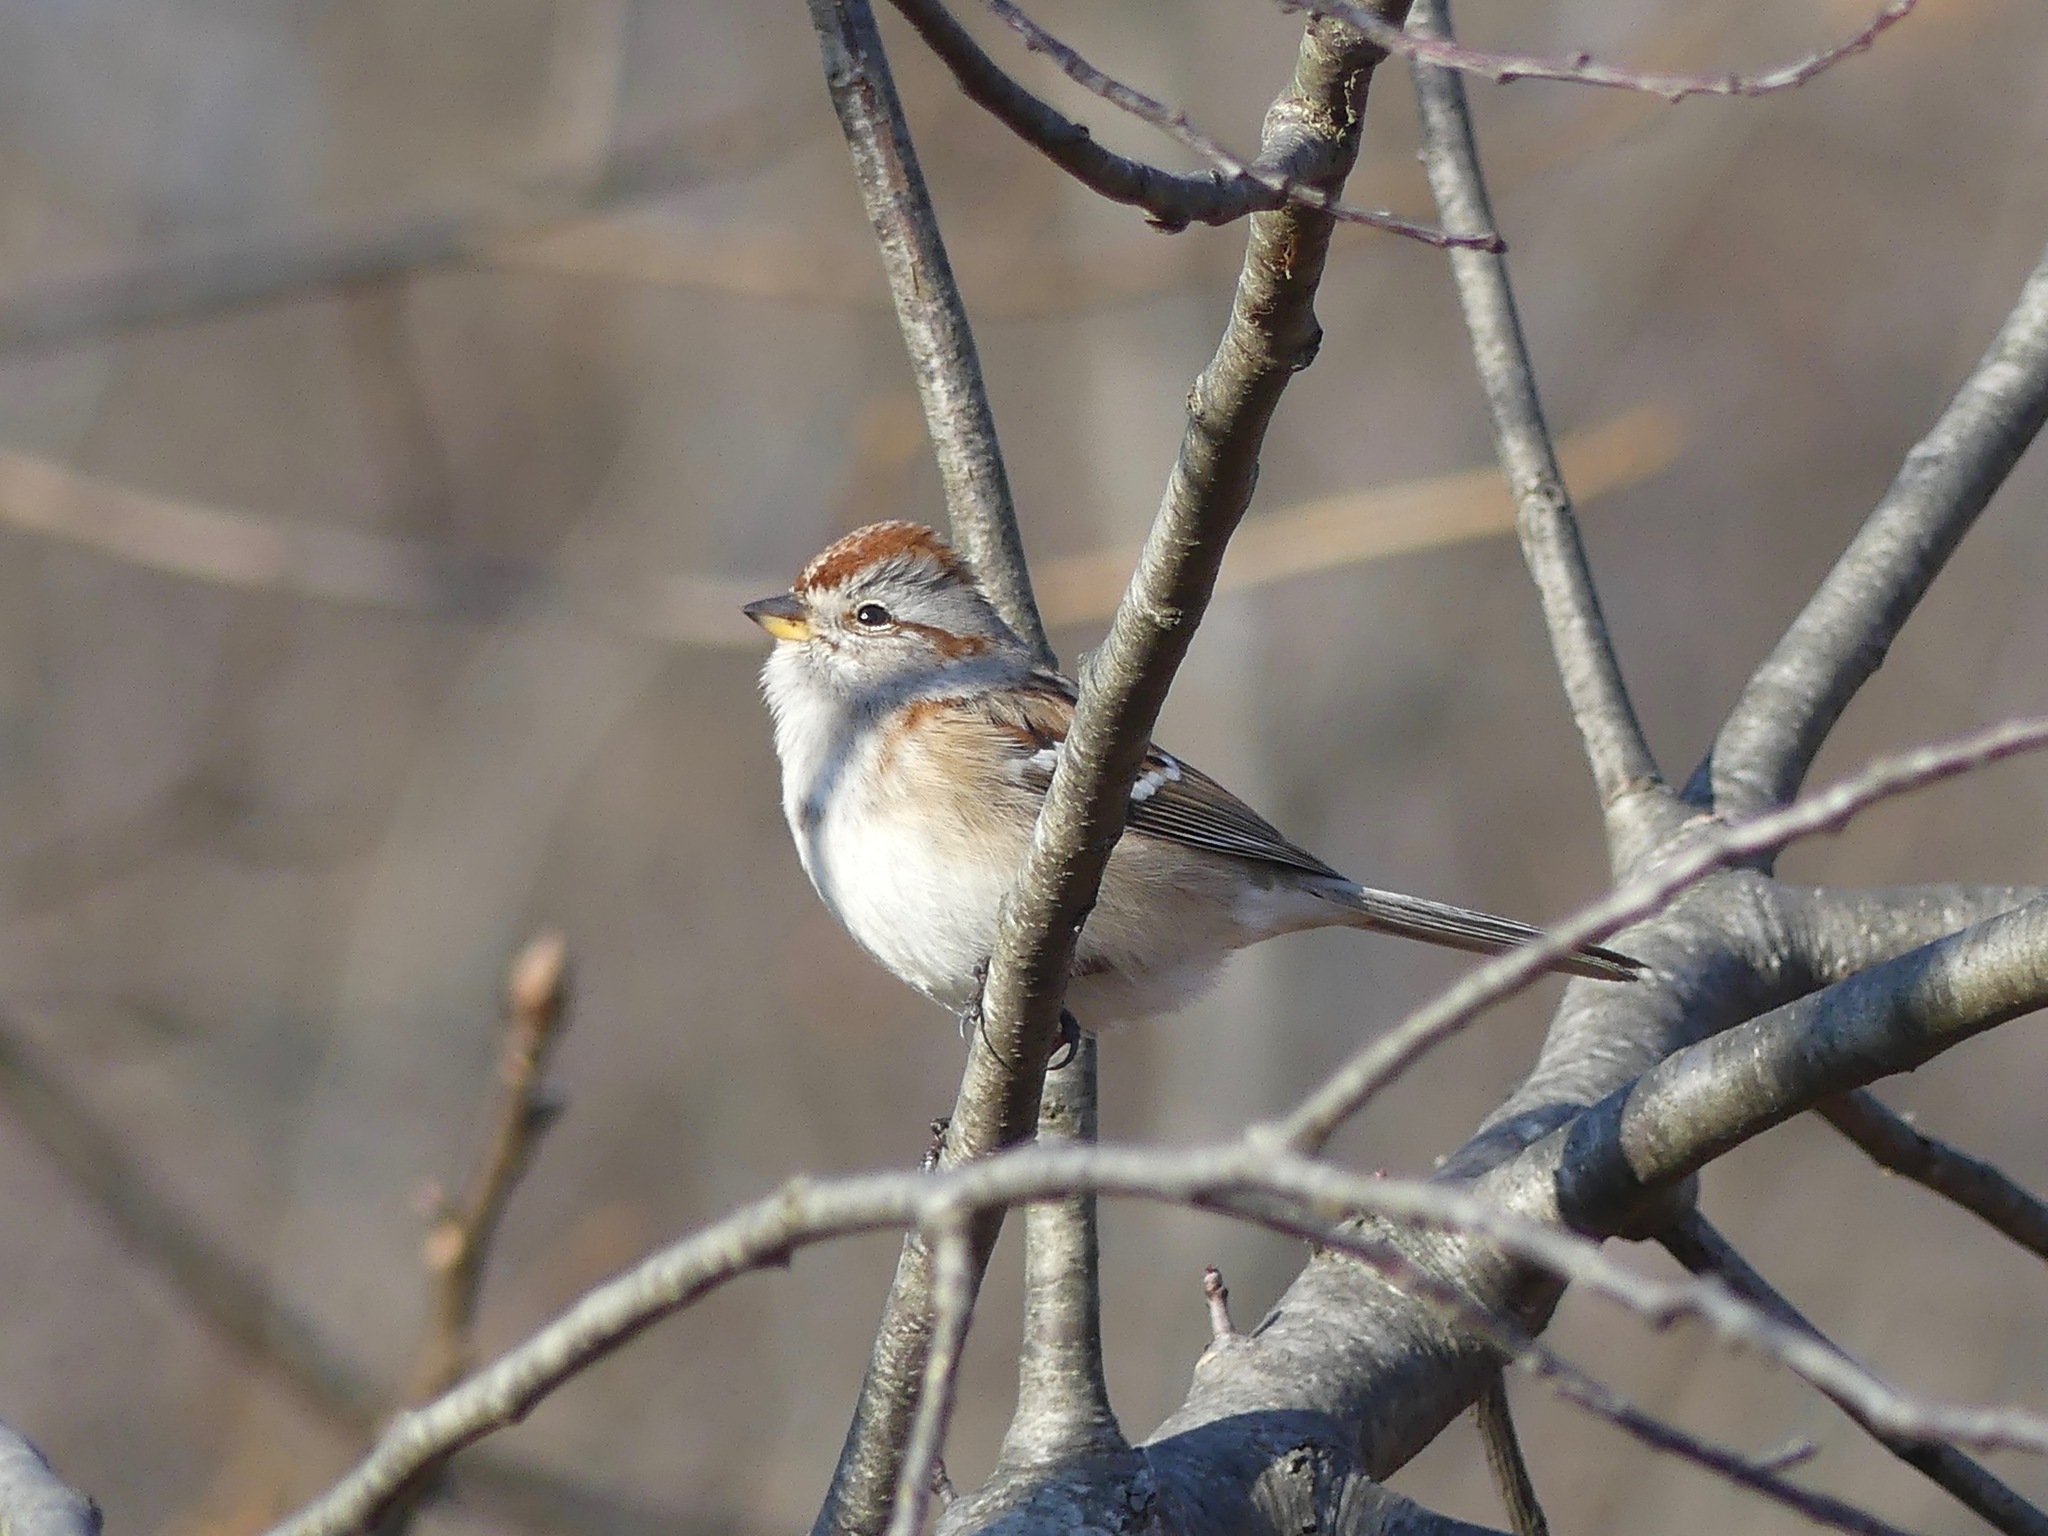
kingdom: Animalia
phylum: Chordata
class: Aves
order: Passeriformes
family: Passerellidae
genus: Spizelloides
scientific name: Spizelloides arborea
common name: American tree sparrow
